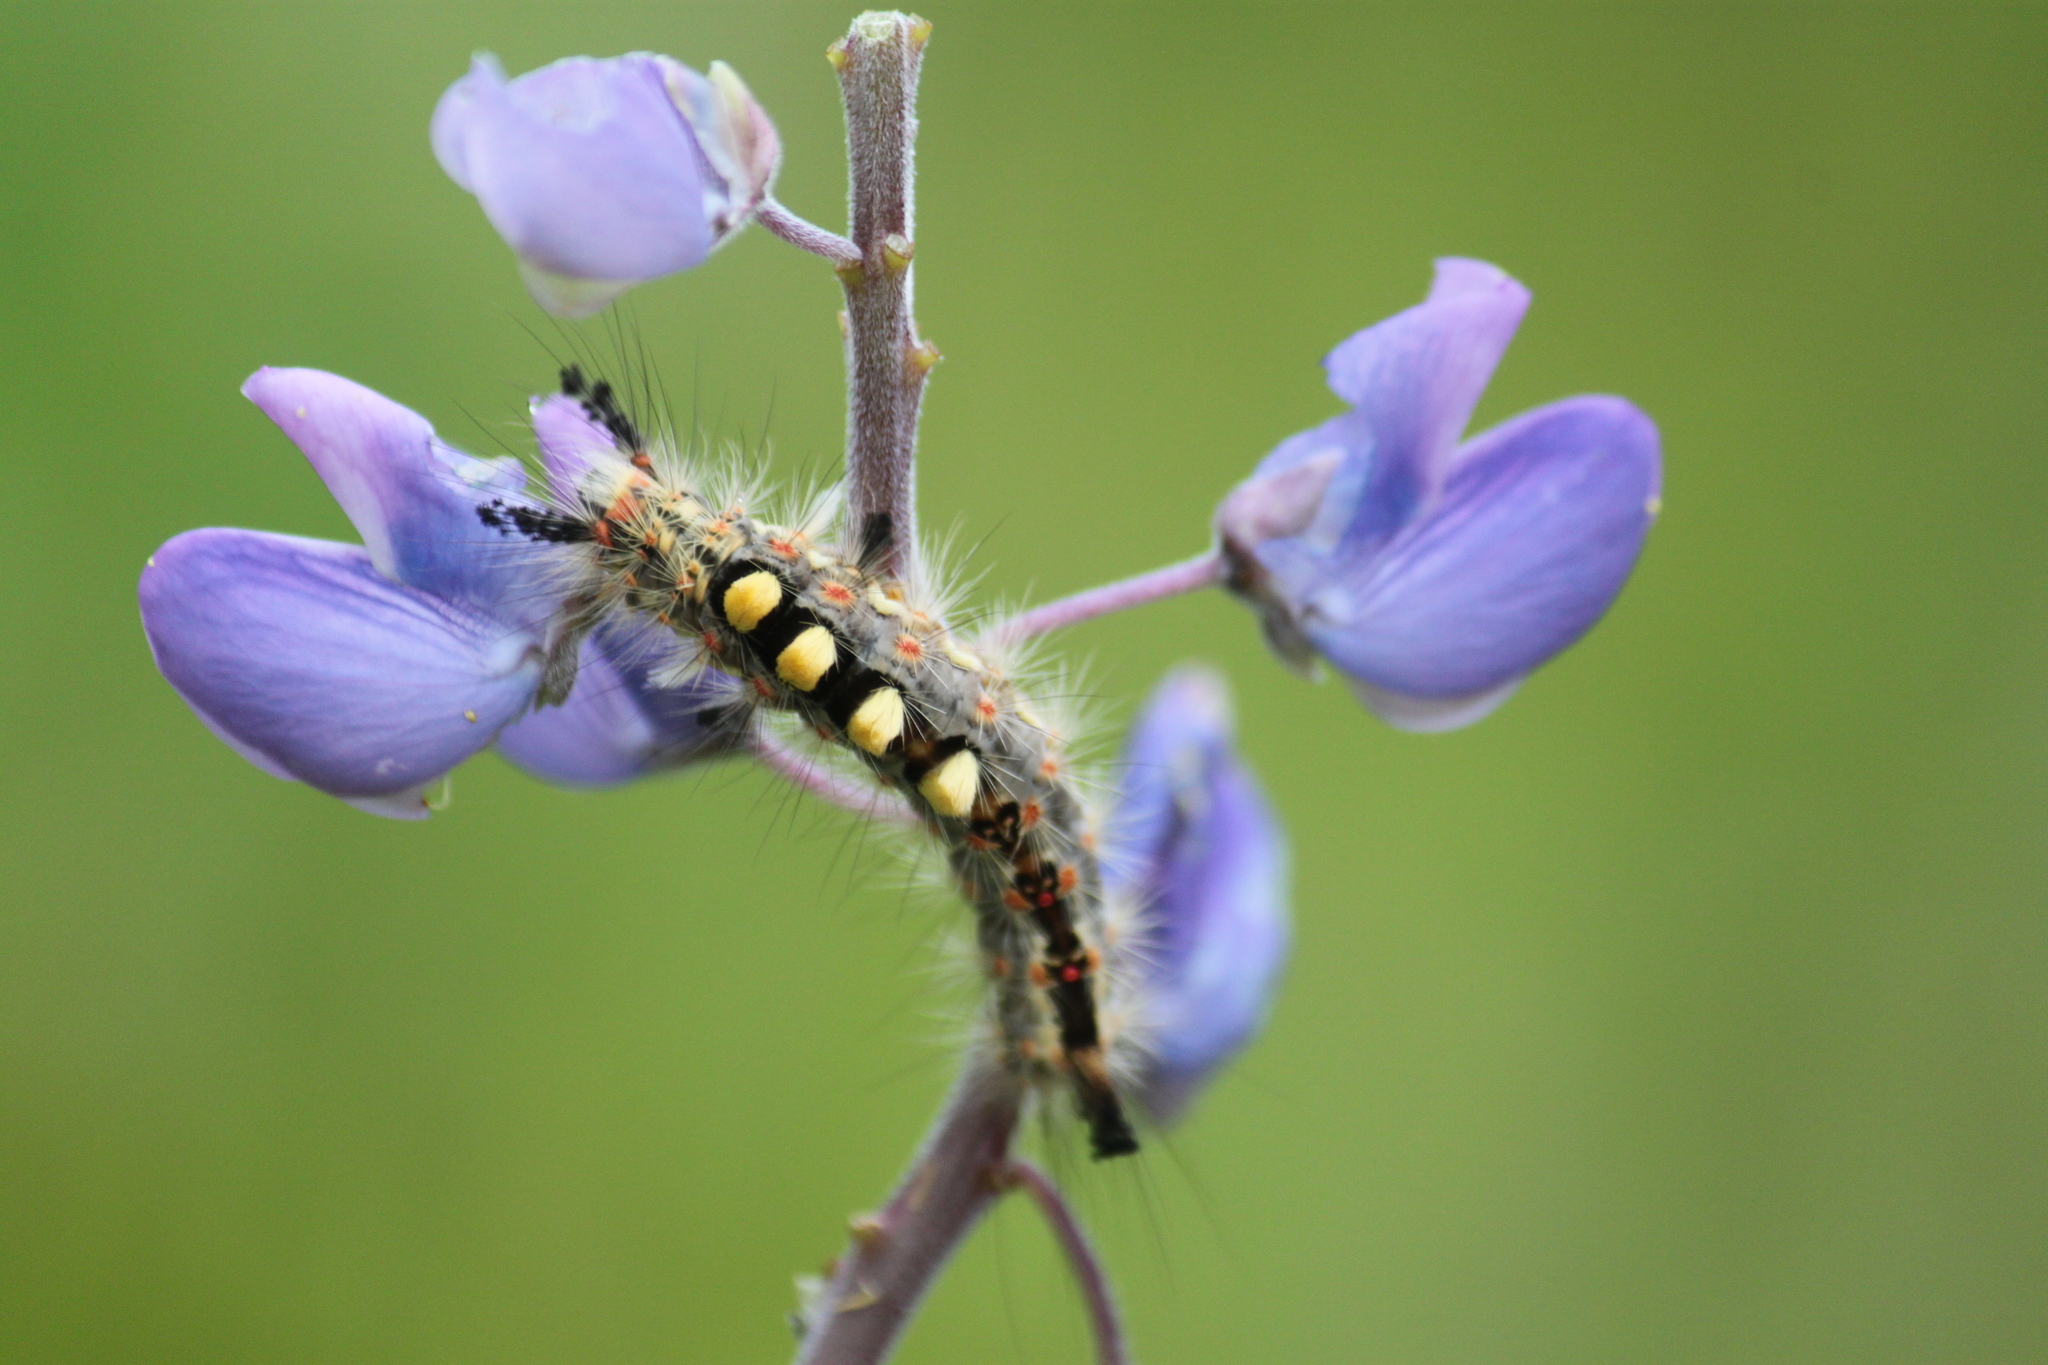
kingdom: Animalia
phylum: Arthropoda
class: Insecta
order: Lepidoptera
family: Erebidae
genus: Orgyia
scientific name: Orgyia antiqua
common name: Vapourer
